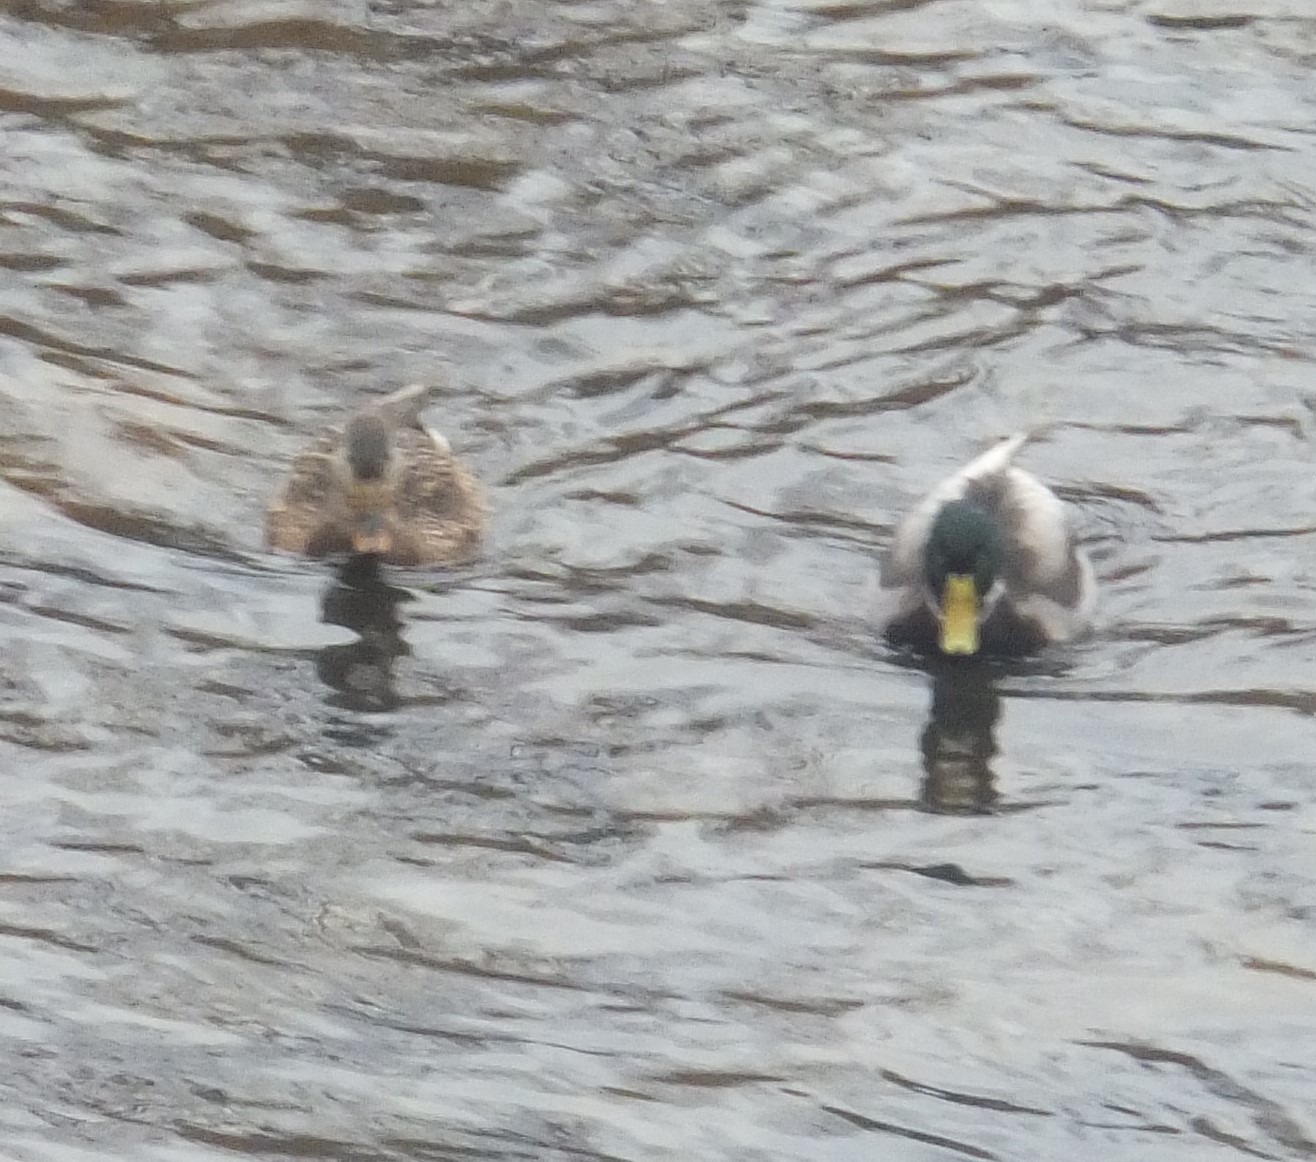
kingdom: Animalia
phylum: Chordata
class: Aves
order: Anseriformes
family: Anatidae
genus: Anas
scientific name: Anas platyrhynchos
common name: Mallard
